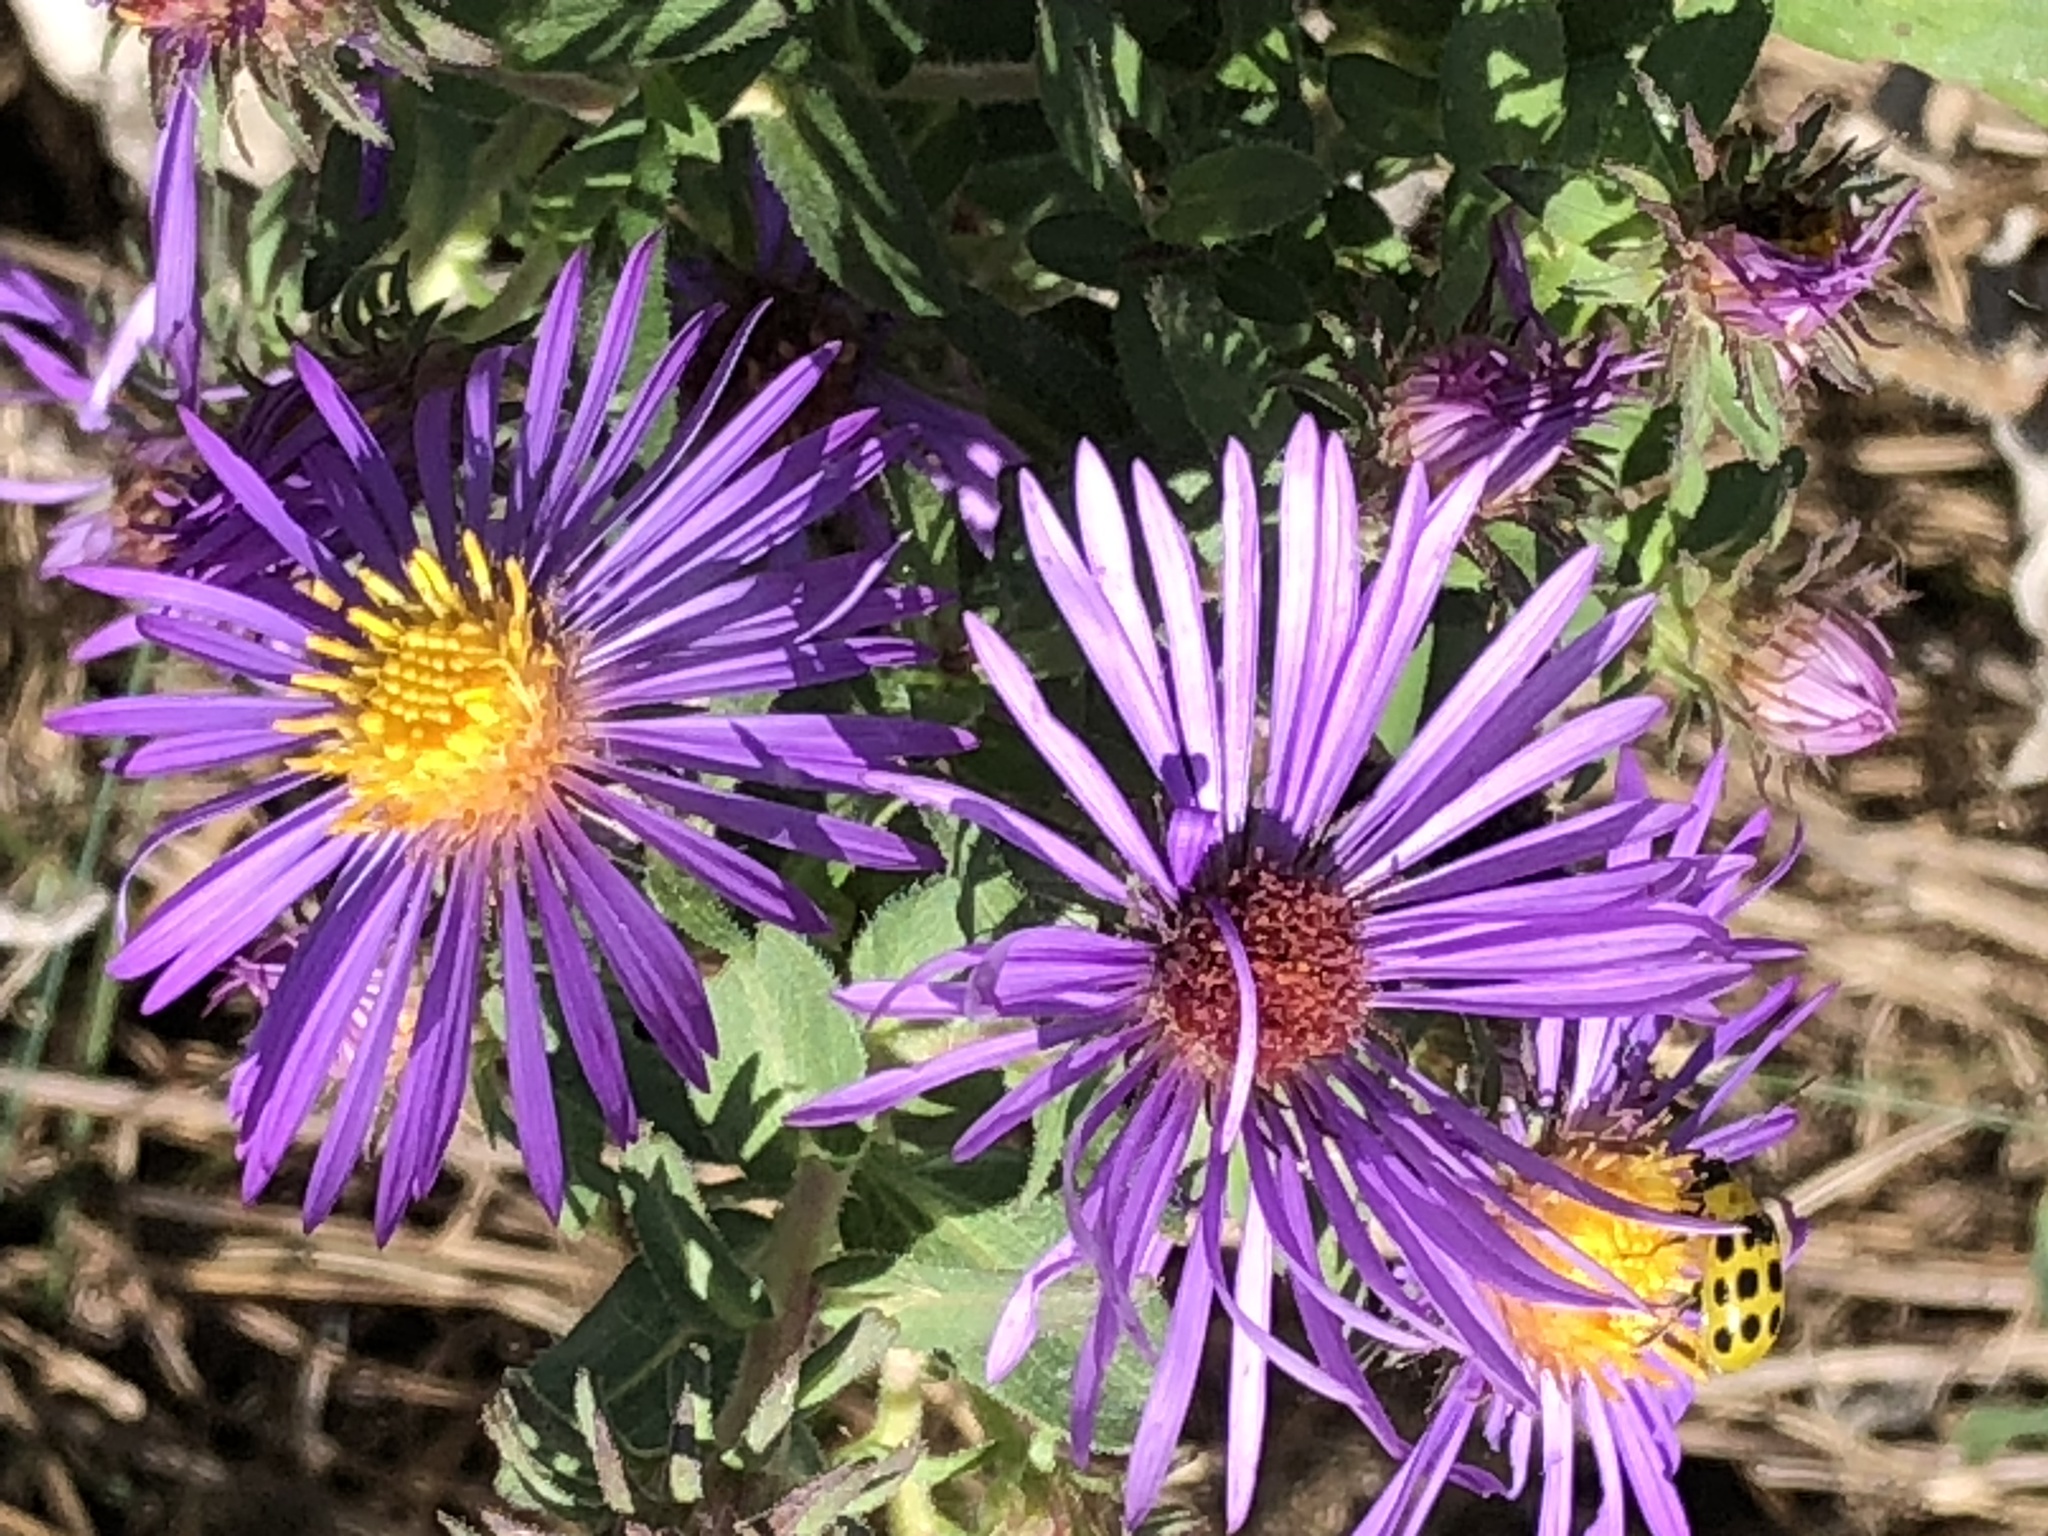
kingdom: Plantae
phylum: Tracheophyta
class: Magnoliopsida
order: Asterales
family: Asteraceae
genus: Symphyotrichum
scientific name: Symphyotrichum novae-angliae
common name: Michaelmas daisy
